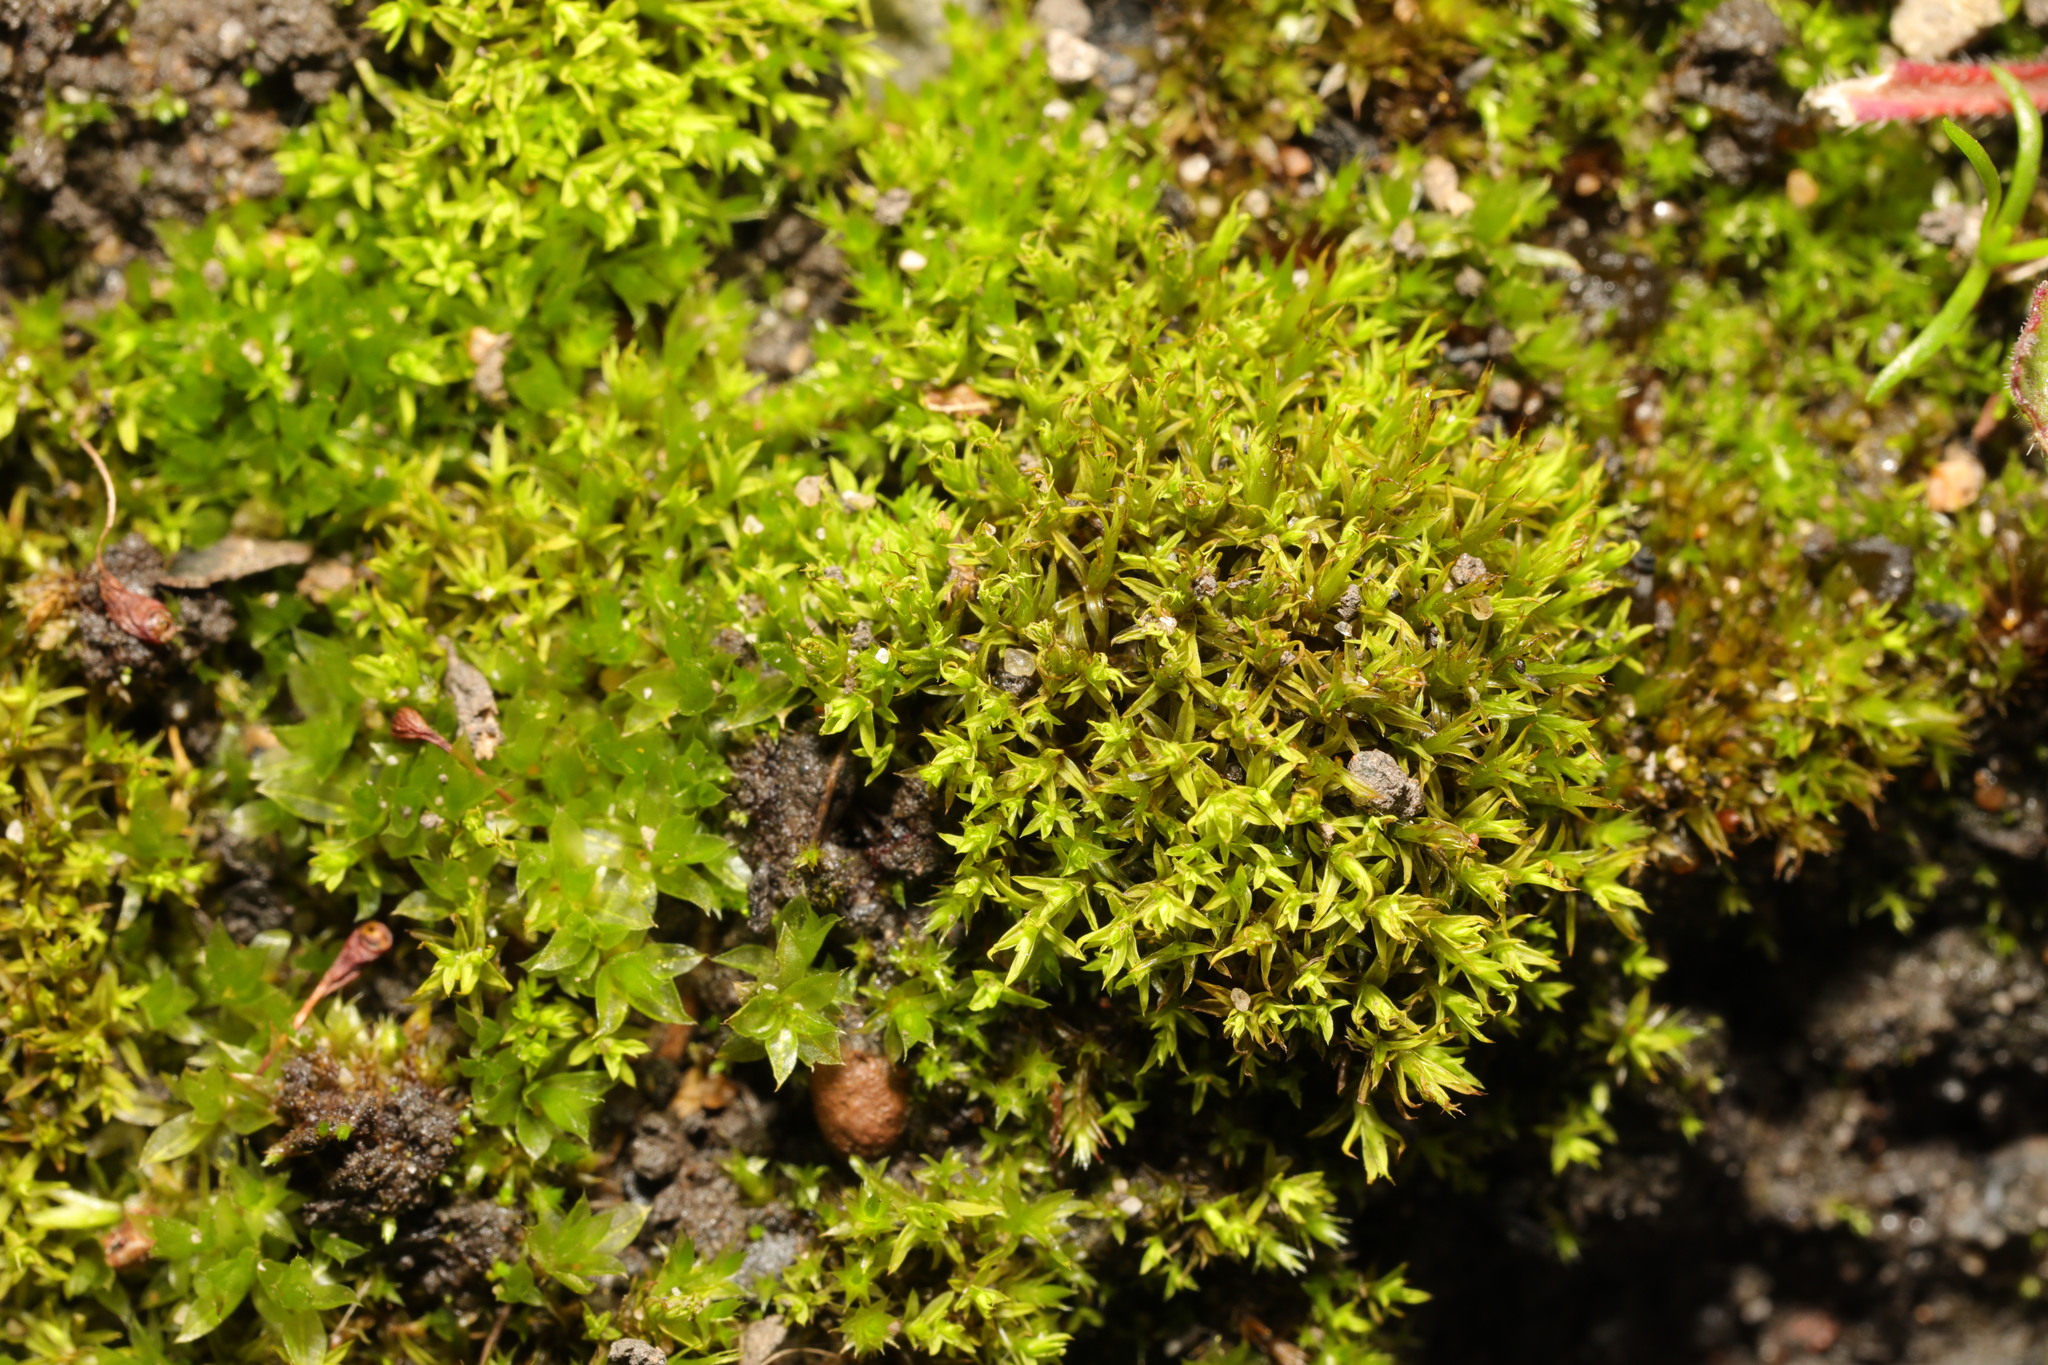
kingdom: Plantae
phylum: Bryophyta
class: Bryopsida
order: Pottiales
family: Pottiaceae
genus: Barbula
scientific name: Barbula unguiculata
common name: Prickly beard moss
